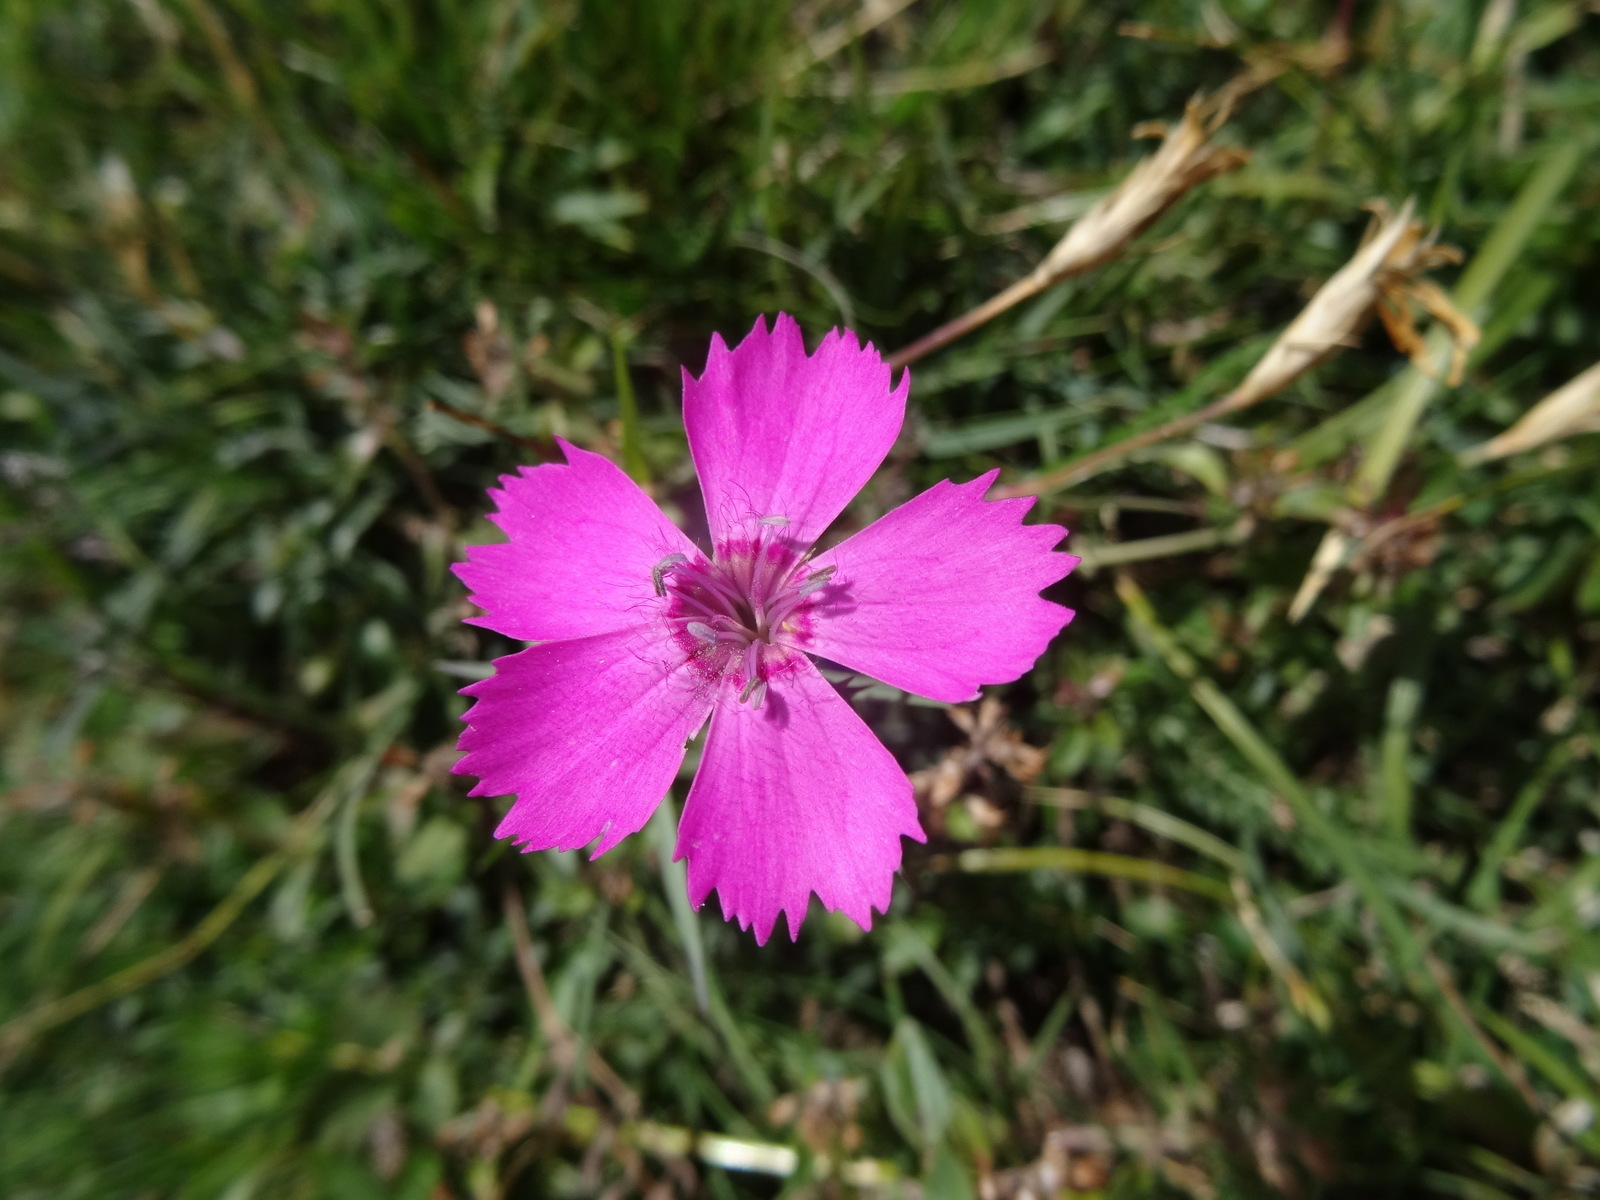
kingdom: Plantae
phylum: Tracheophyta
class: Magnoliopsida
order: Caryophyllales
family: Caryophyllaceae
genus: Dianthus
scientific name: Dianthus pavonius
